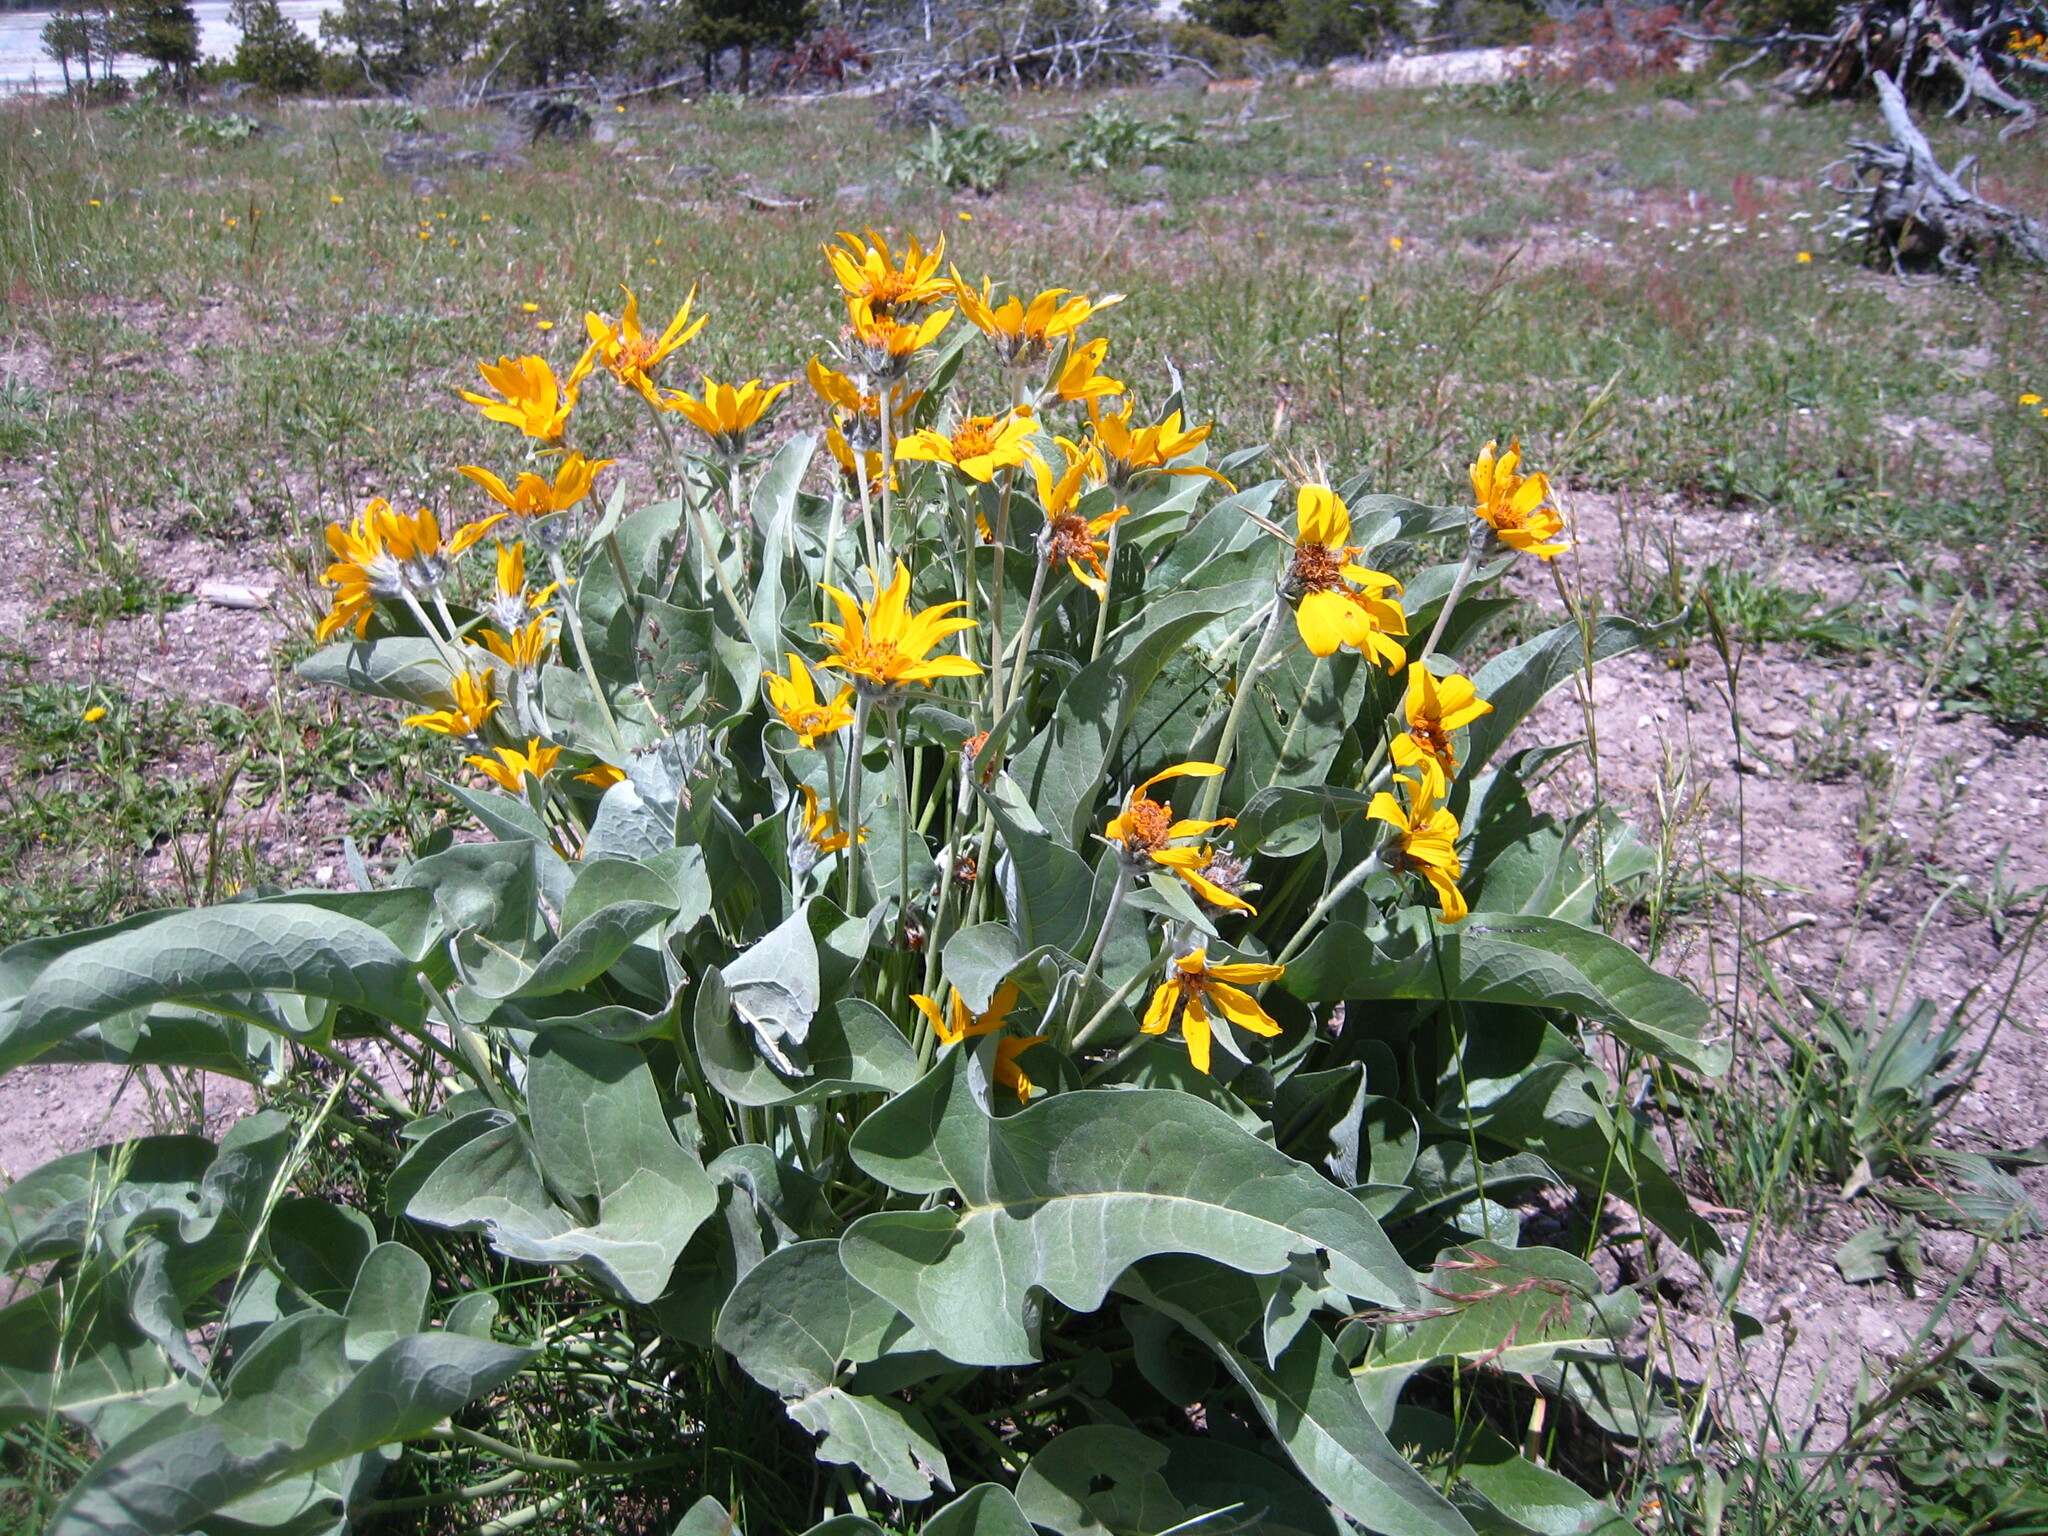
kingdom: Plantae
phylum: Tracheophyta
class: Magnoliopsida
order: Asterales
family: Asteraceae
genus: Wyethia
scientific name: Wyethia sagittata
